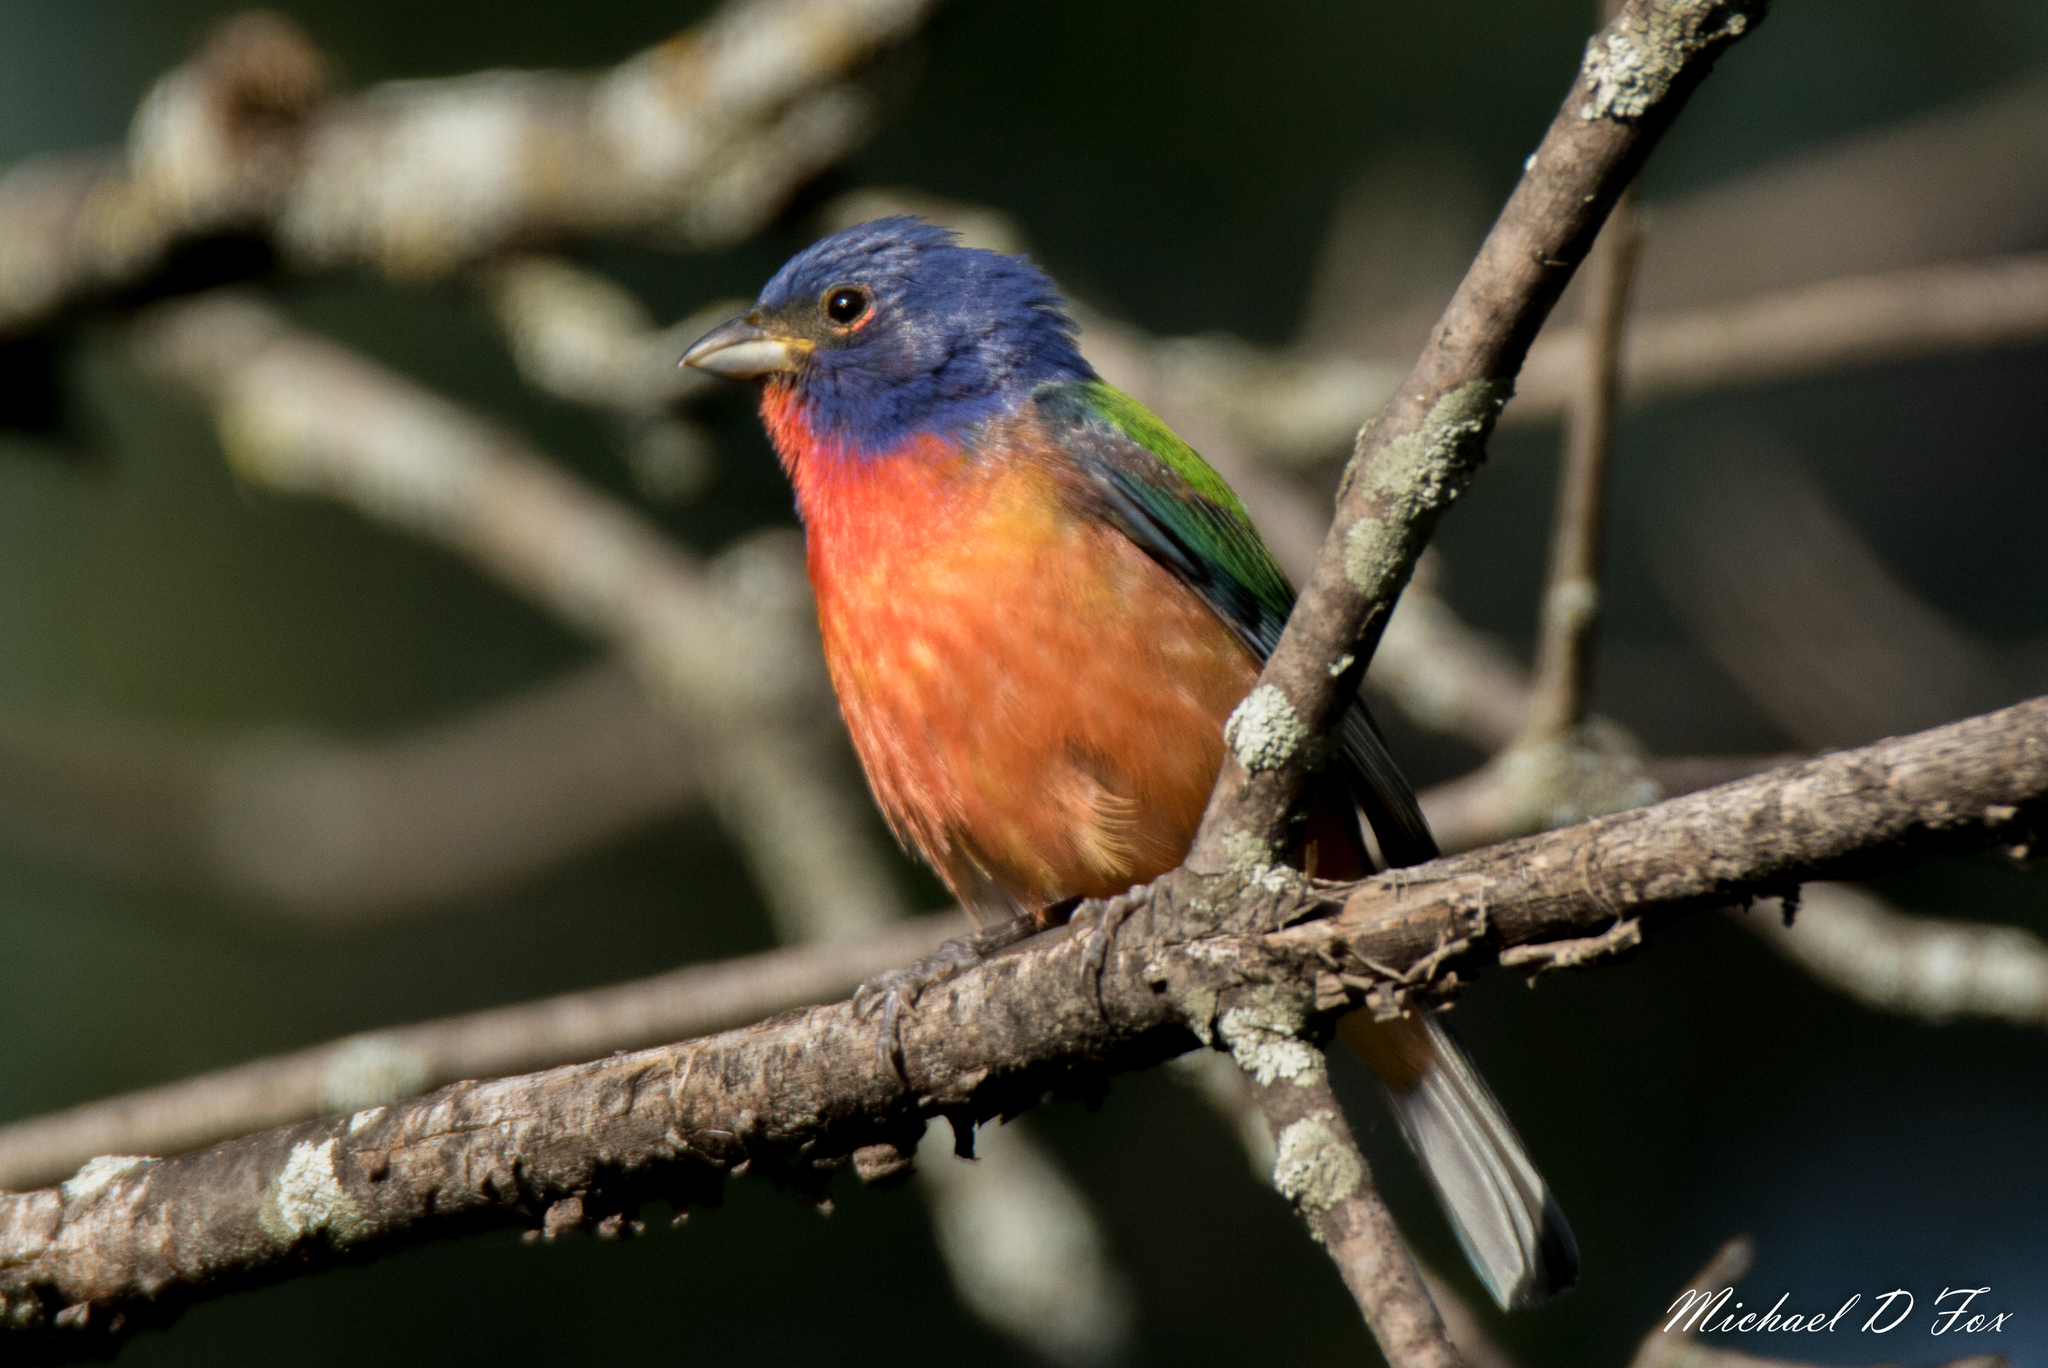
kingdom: Animalia
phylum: Chordata
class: Aves
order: Passeriformes
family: Cardinalidae
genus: Passerina
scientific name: Passerina ciris
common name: Painted bunting
